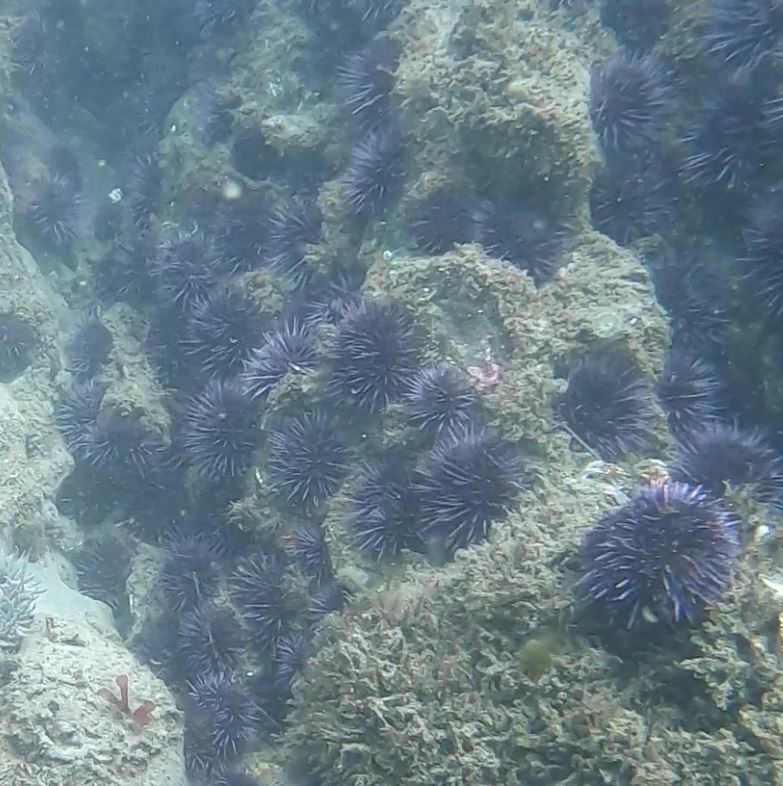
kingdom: Animalia
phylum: Echinodermata
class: Echinoidea
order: Camarodonta
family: Strongylocentrotidae
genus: Strongylocentrotus
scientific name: Strongylocentrotus purpuratus
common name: Purple sea urchin
